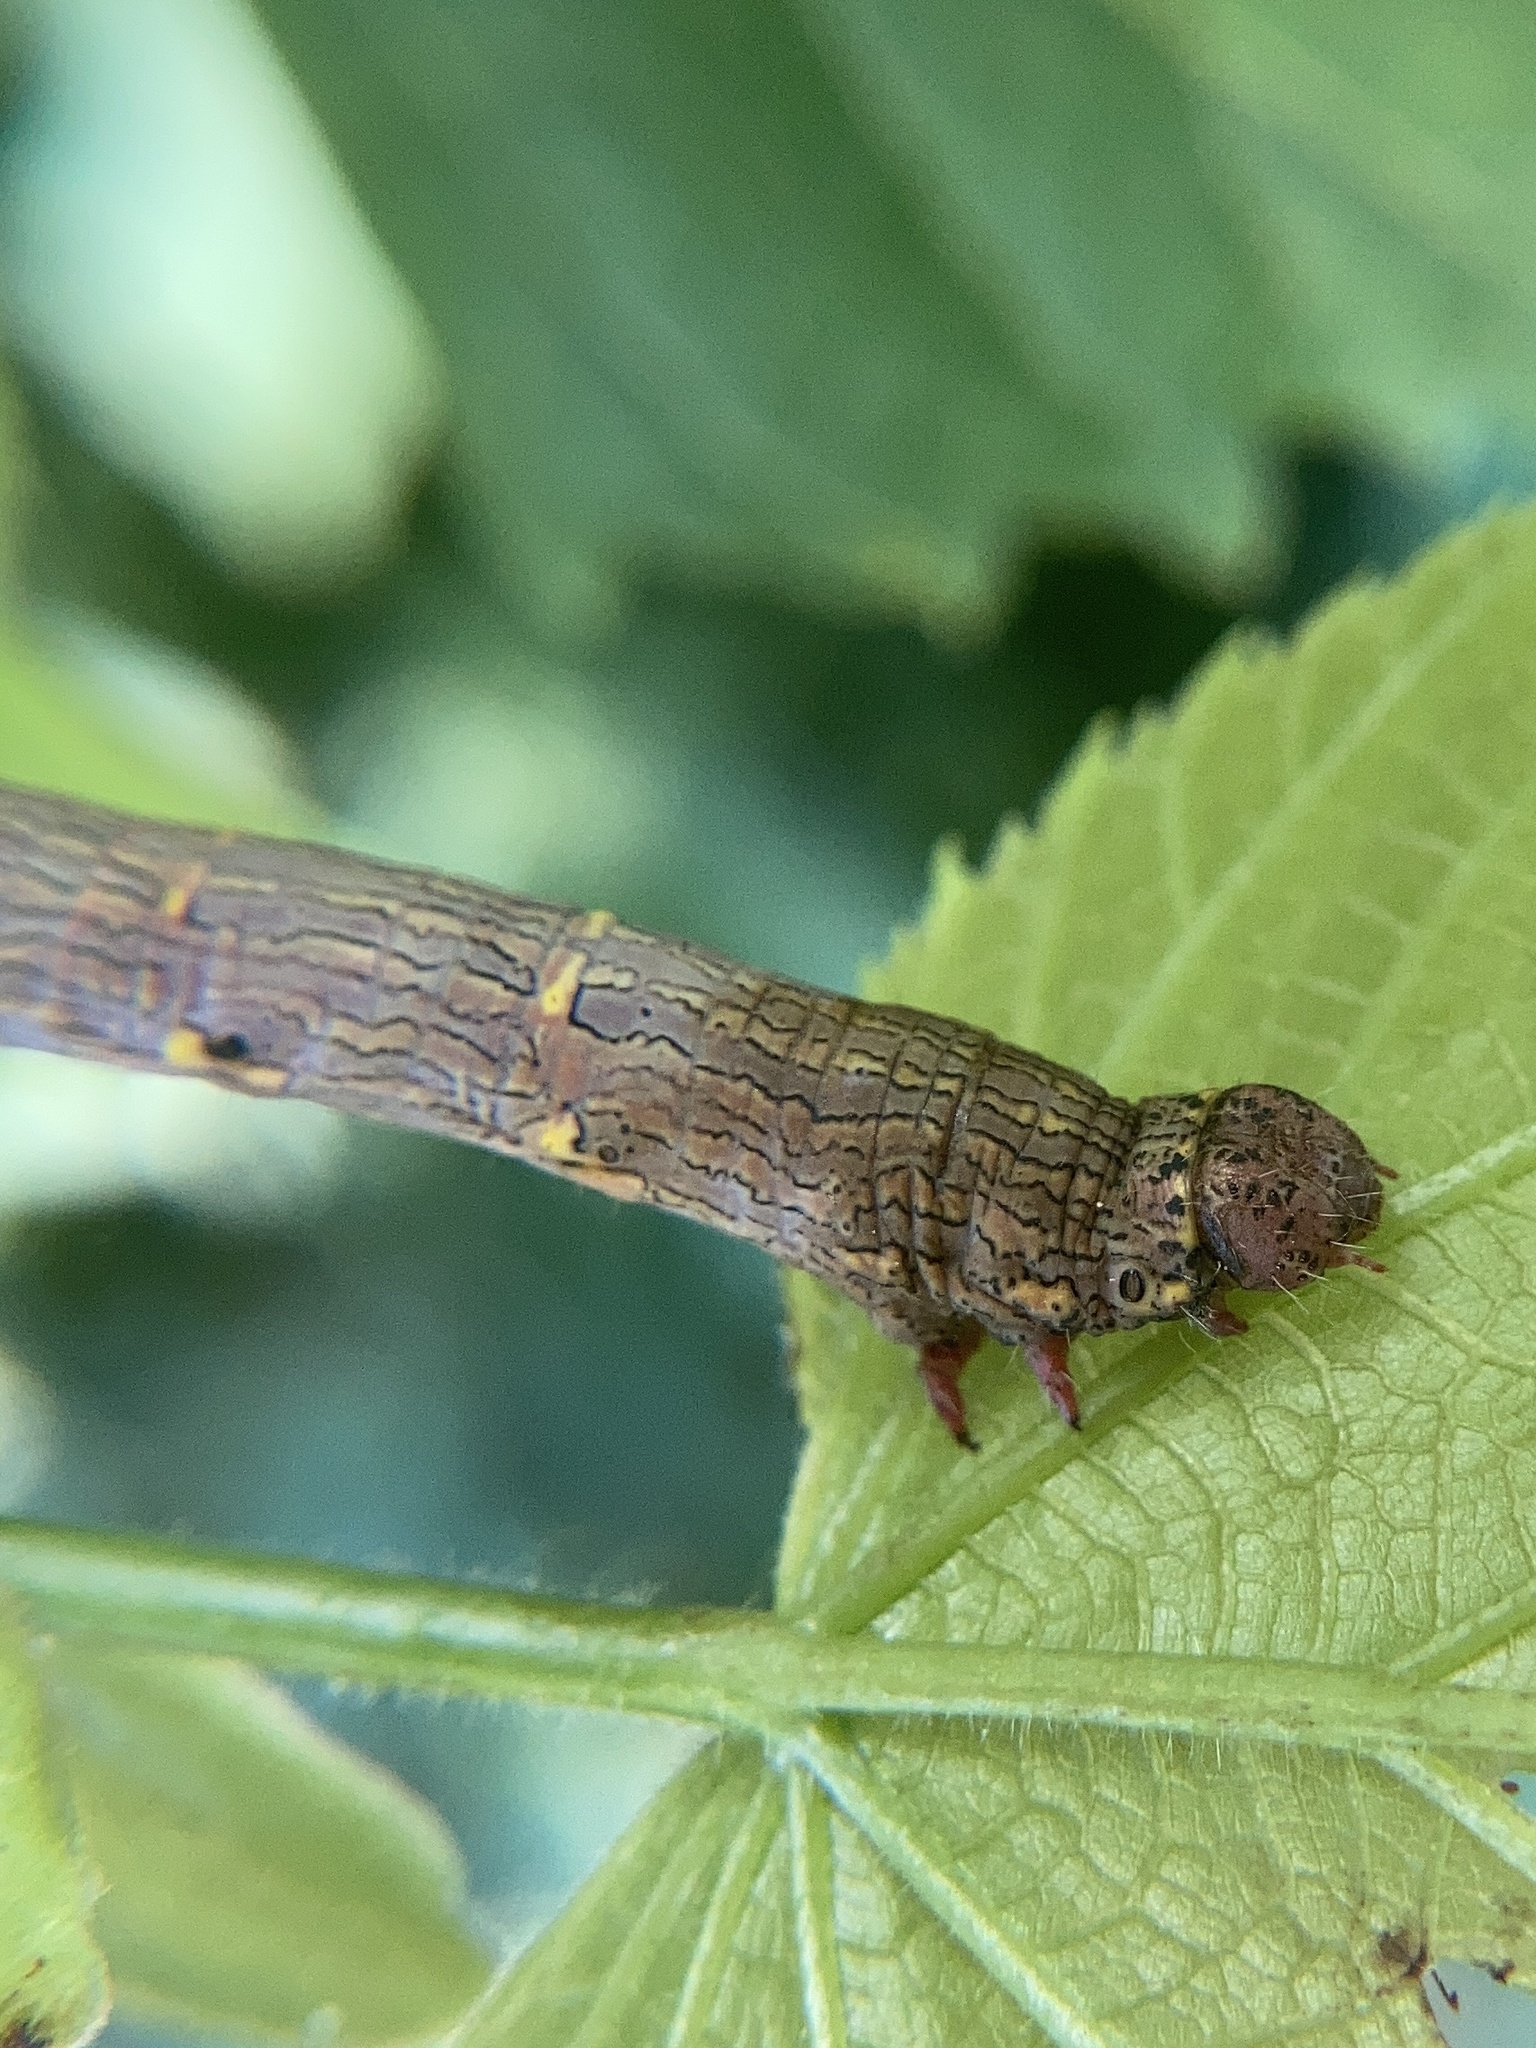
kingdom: Animalia
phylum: Arthropoda
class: Insecta
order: Lepidoptera
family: Geometridae
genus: Lycia
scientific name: Lycia hirtaria
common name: Brindled beauty
